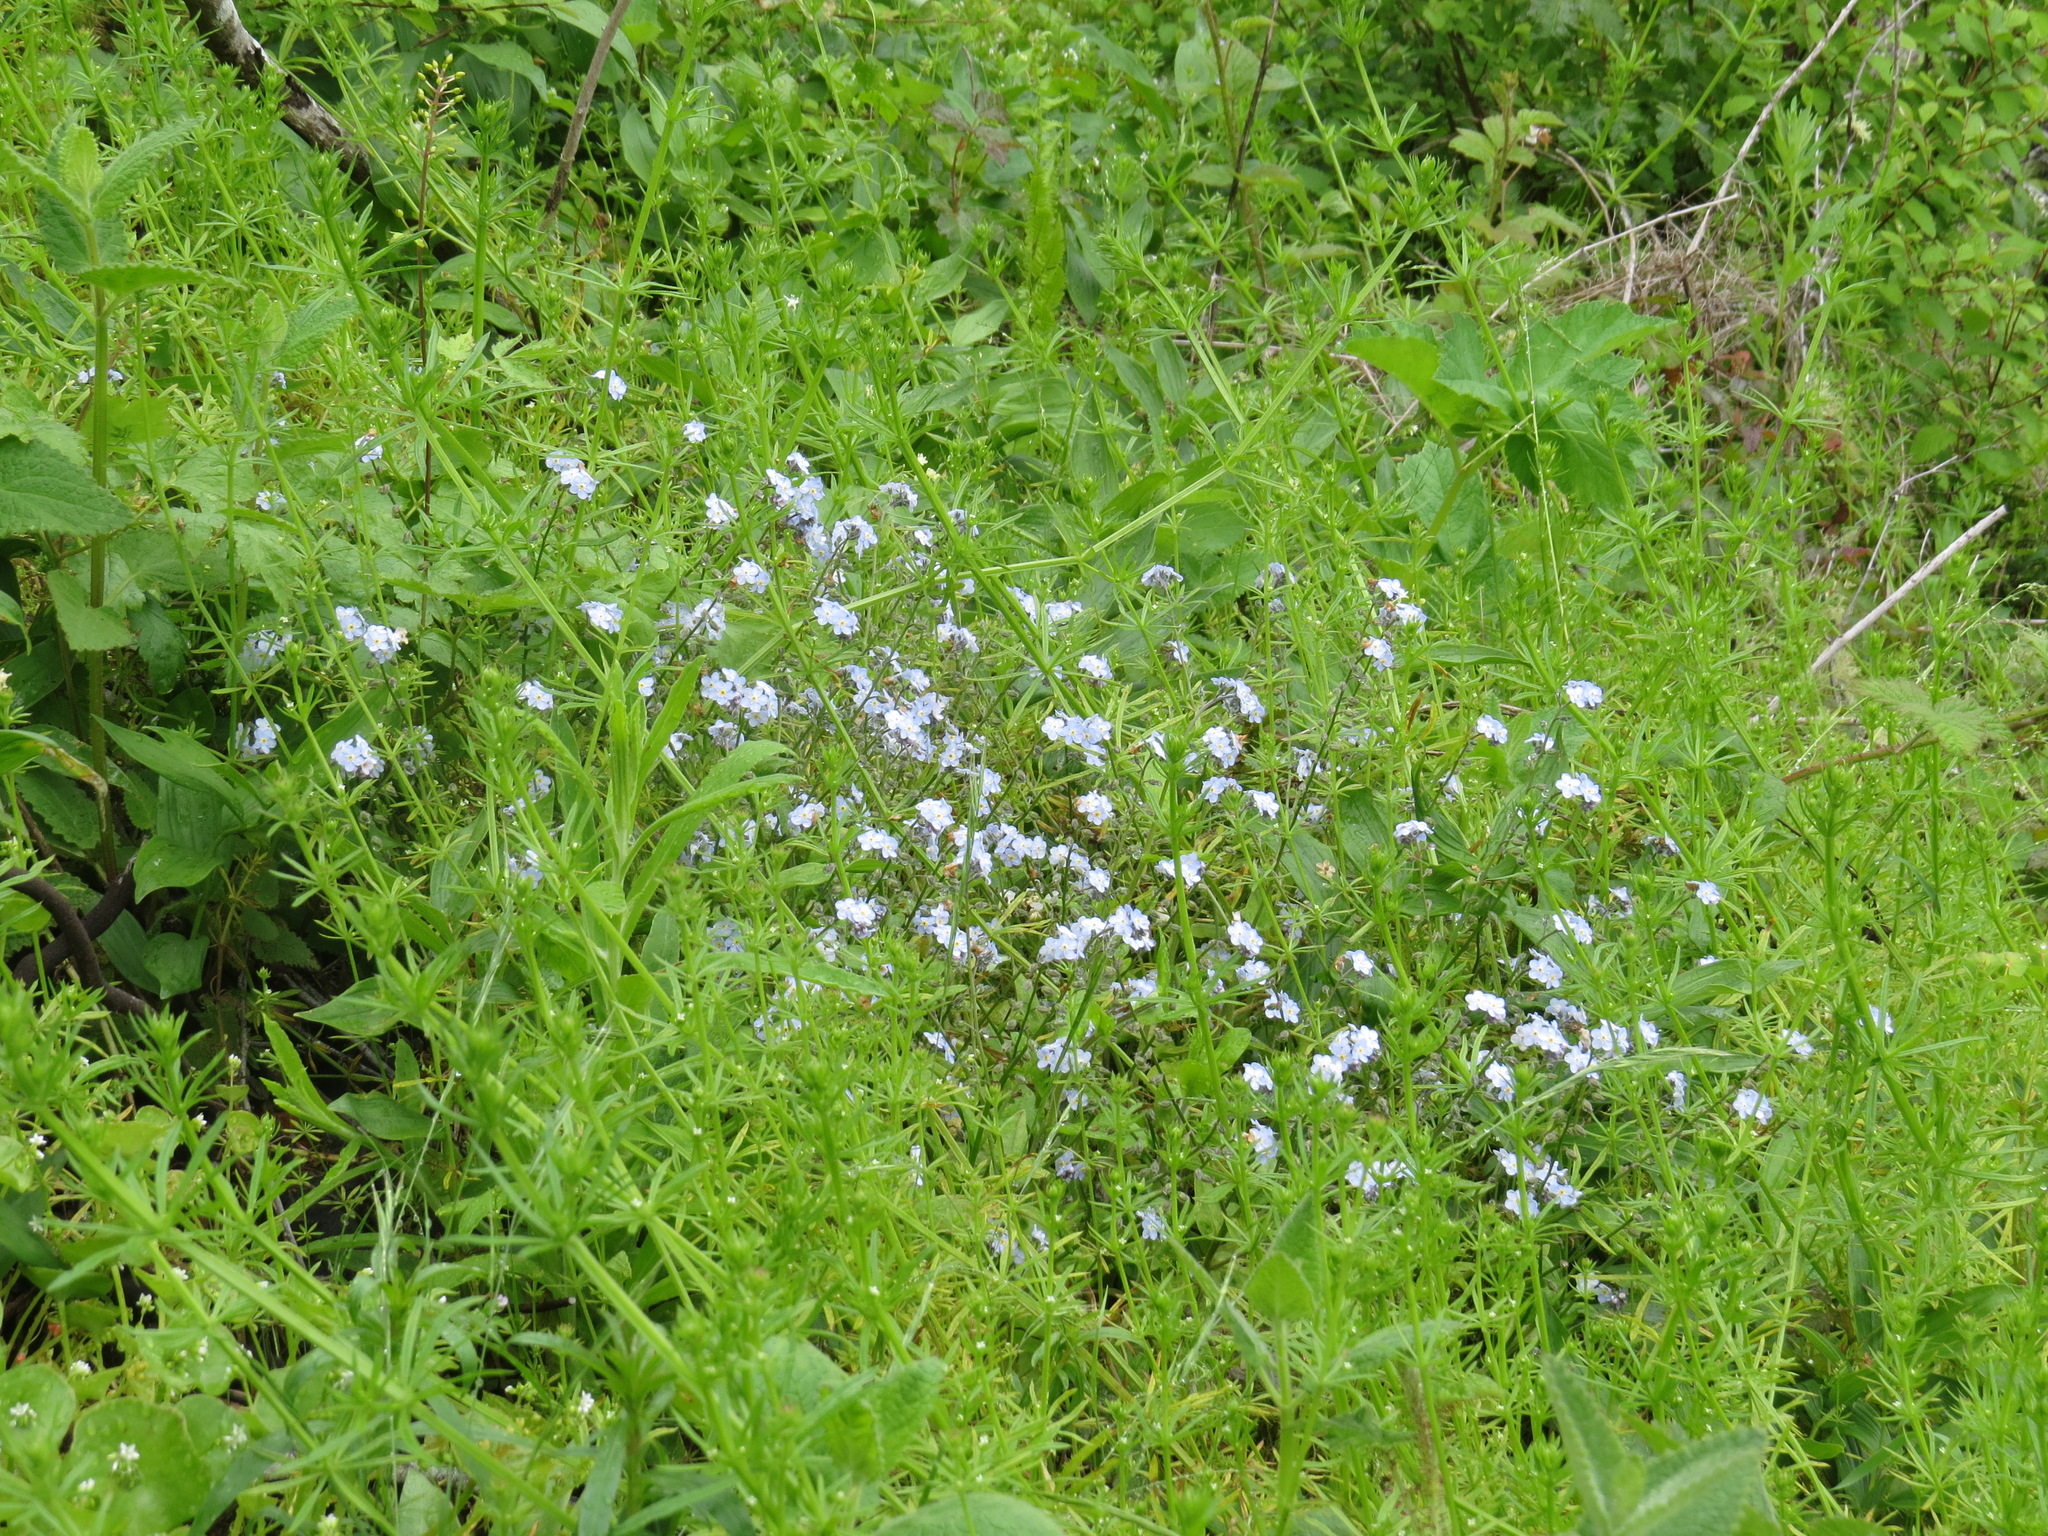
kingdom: Plantae
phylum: Tracheophyta
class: Magnoliopsida
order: Boraginales
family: Boraginaceae
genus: Myosotis
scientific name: Myosotis latifolia
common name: Broadleaf forget-me-not
